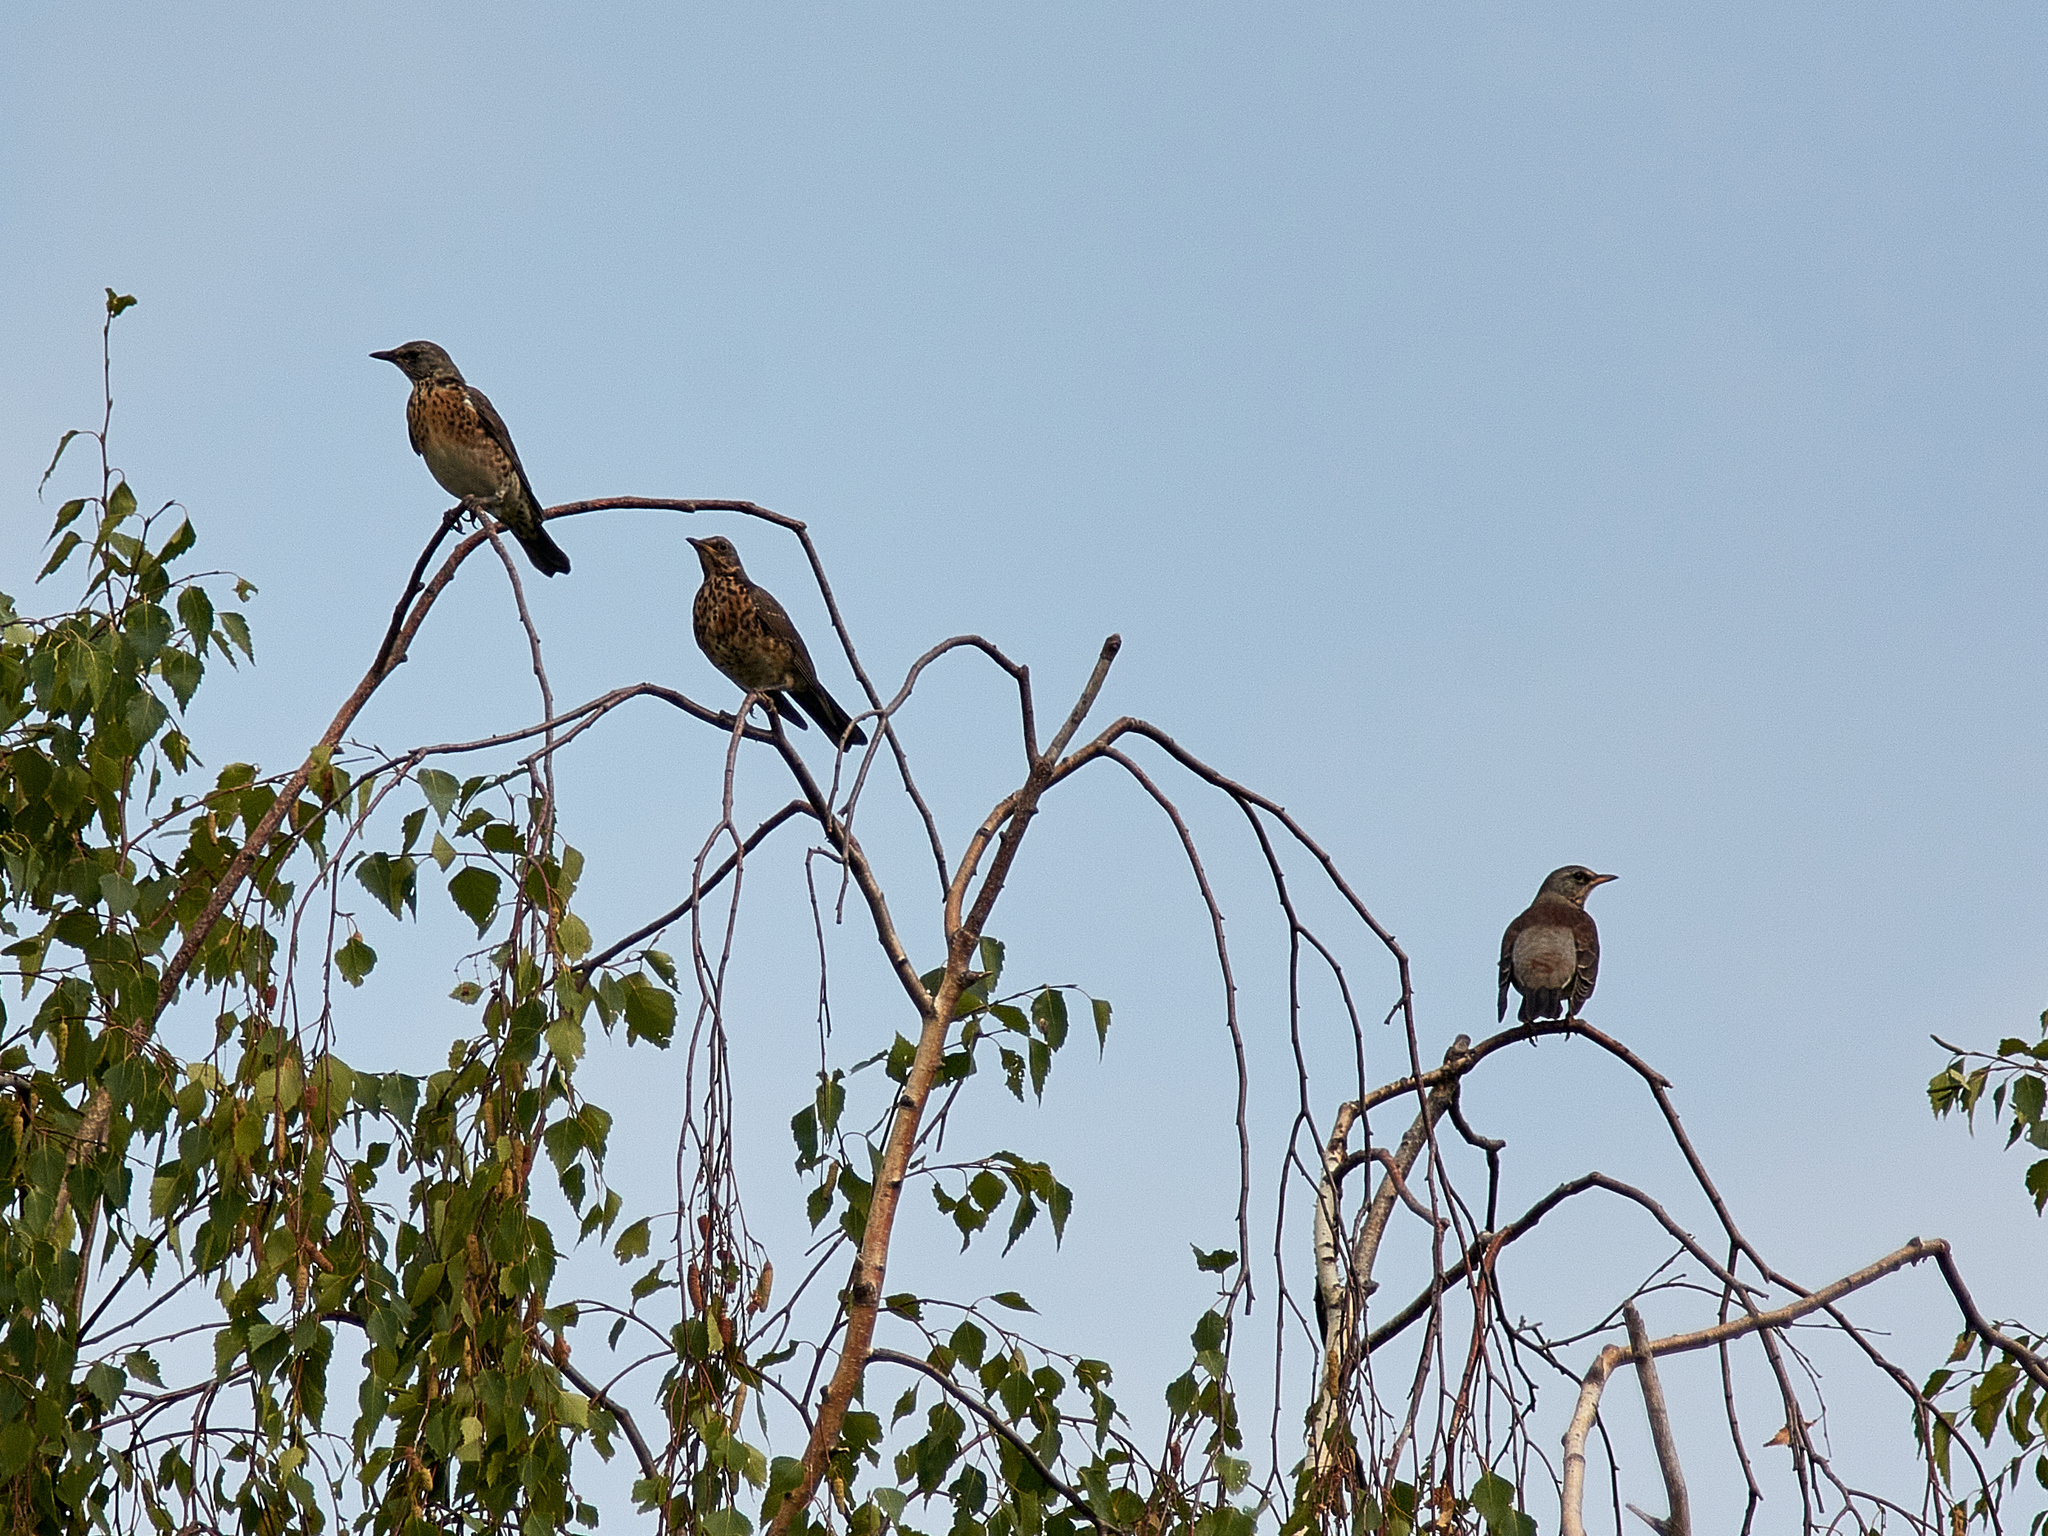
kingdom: Animalia
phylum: Chordata
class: Aves
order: Passeriformes
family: Turdidae
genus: Turdus
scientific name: Turdus pilaris
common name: Fieldfare
